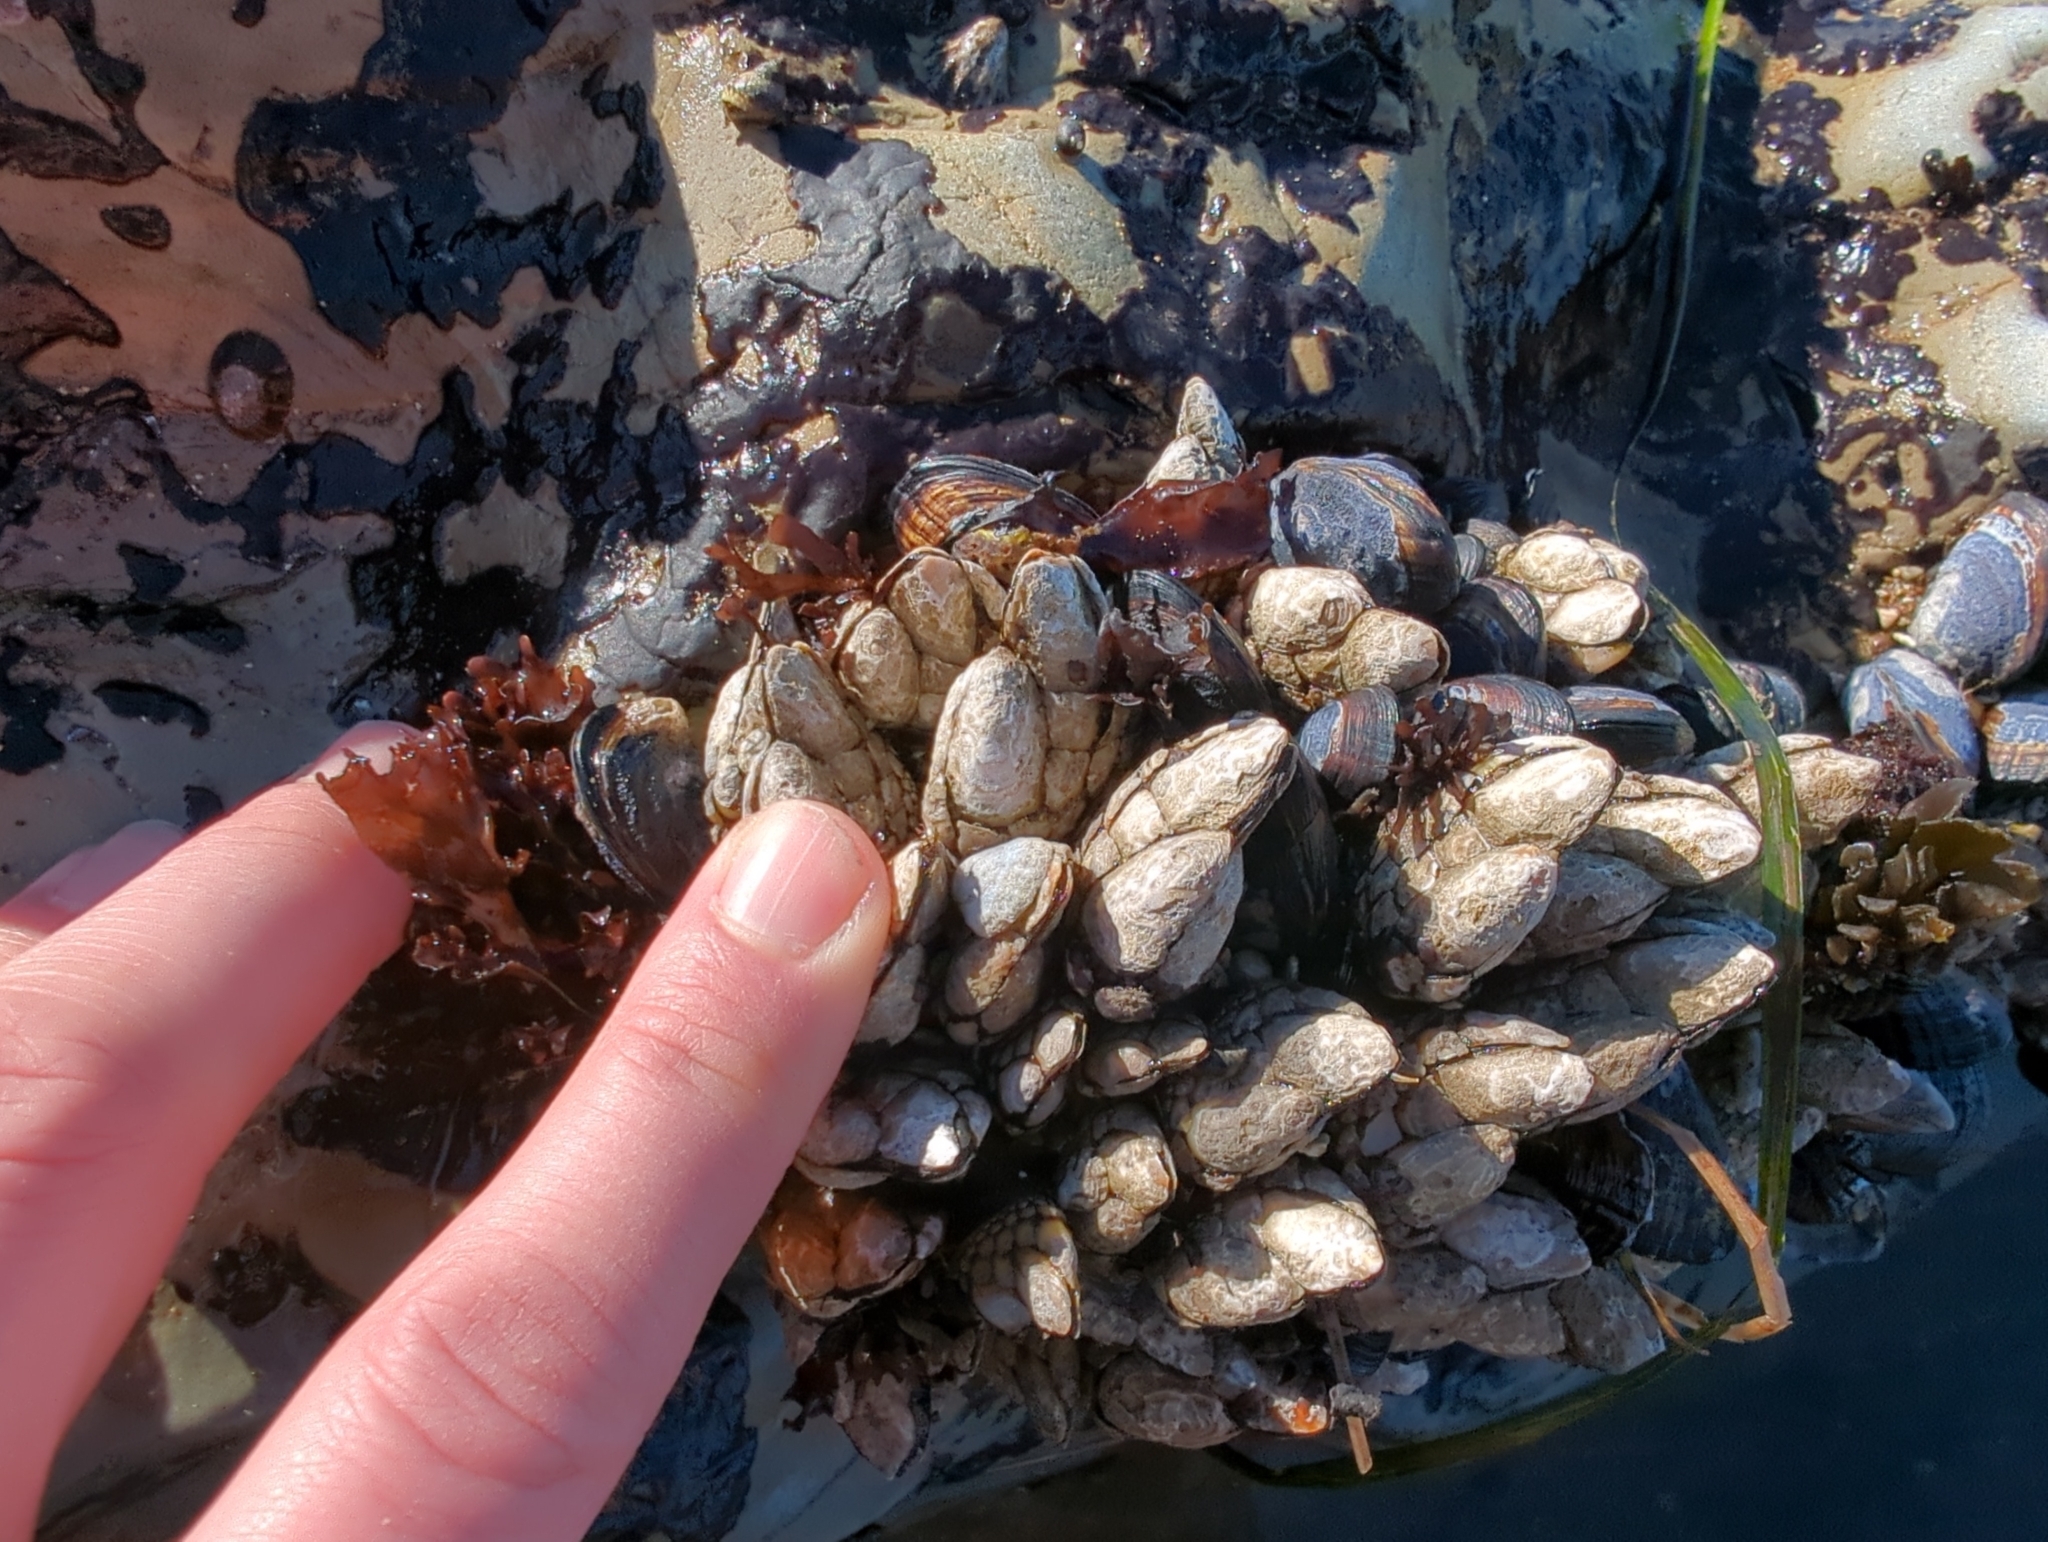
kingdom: Animalia
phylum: Arthropoda
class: Maxillopoda
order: Pedunculata
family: Pollicipedidae
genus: Pollicipes
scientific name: Pollicipes polymerus
